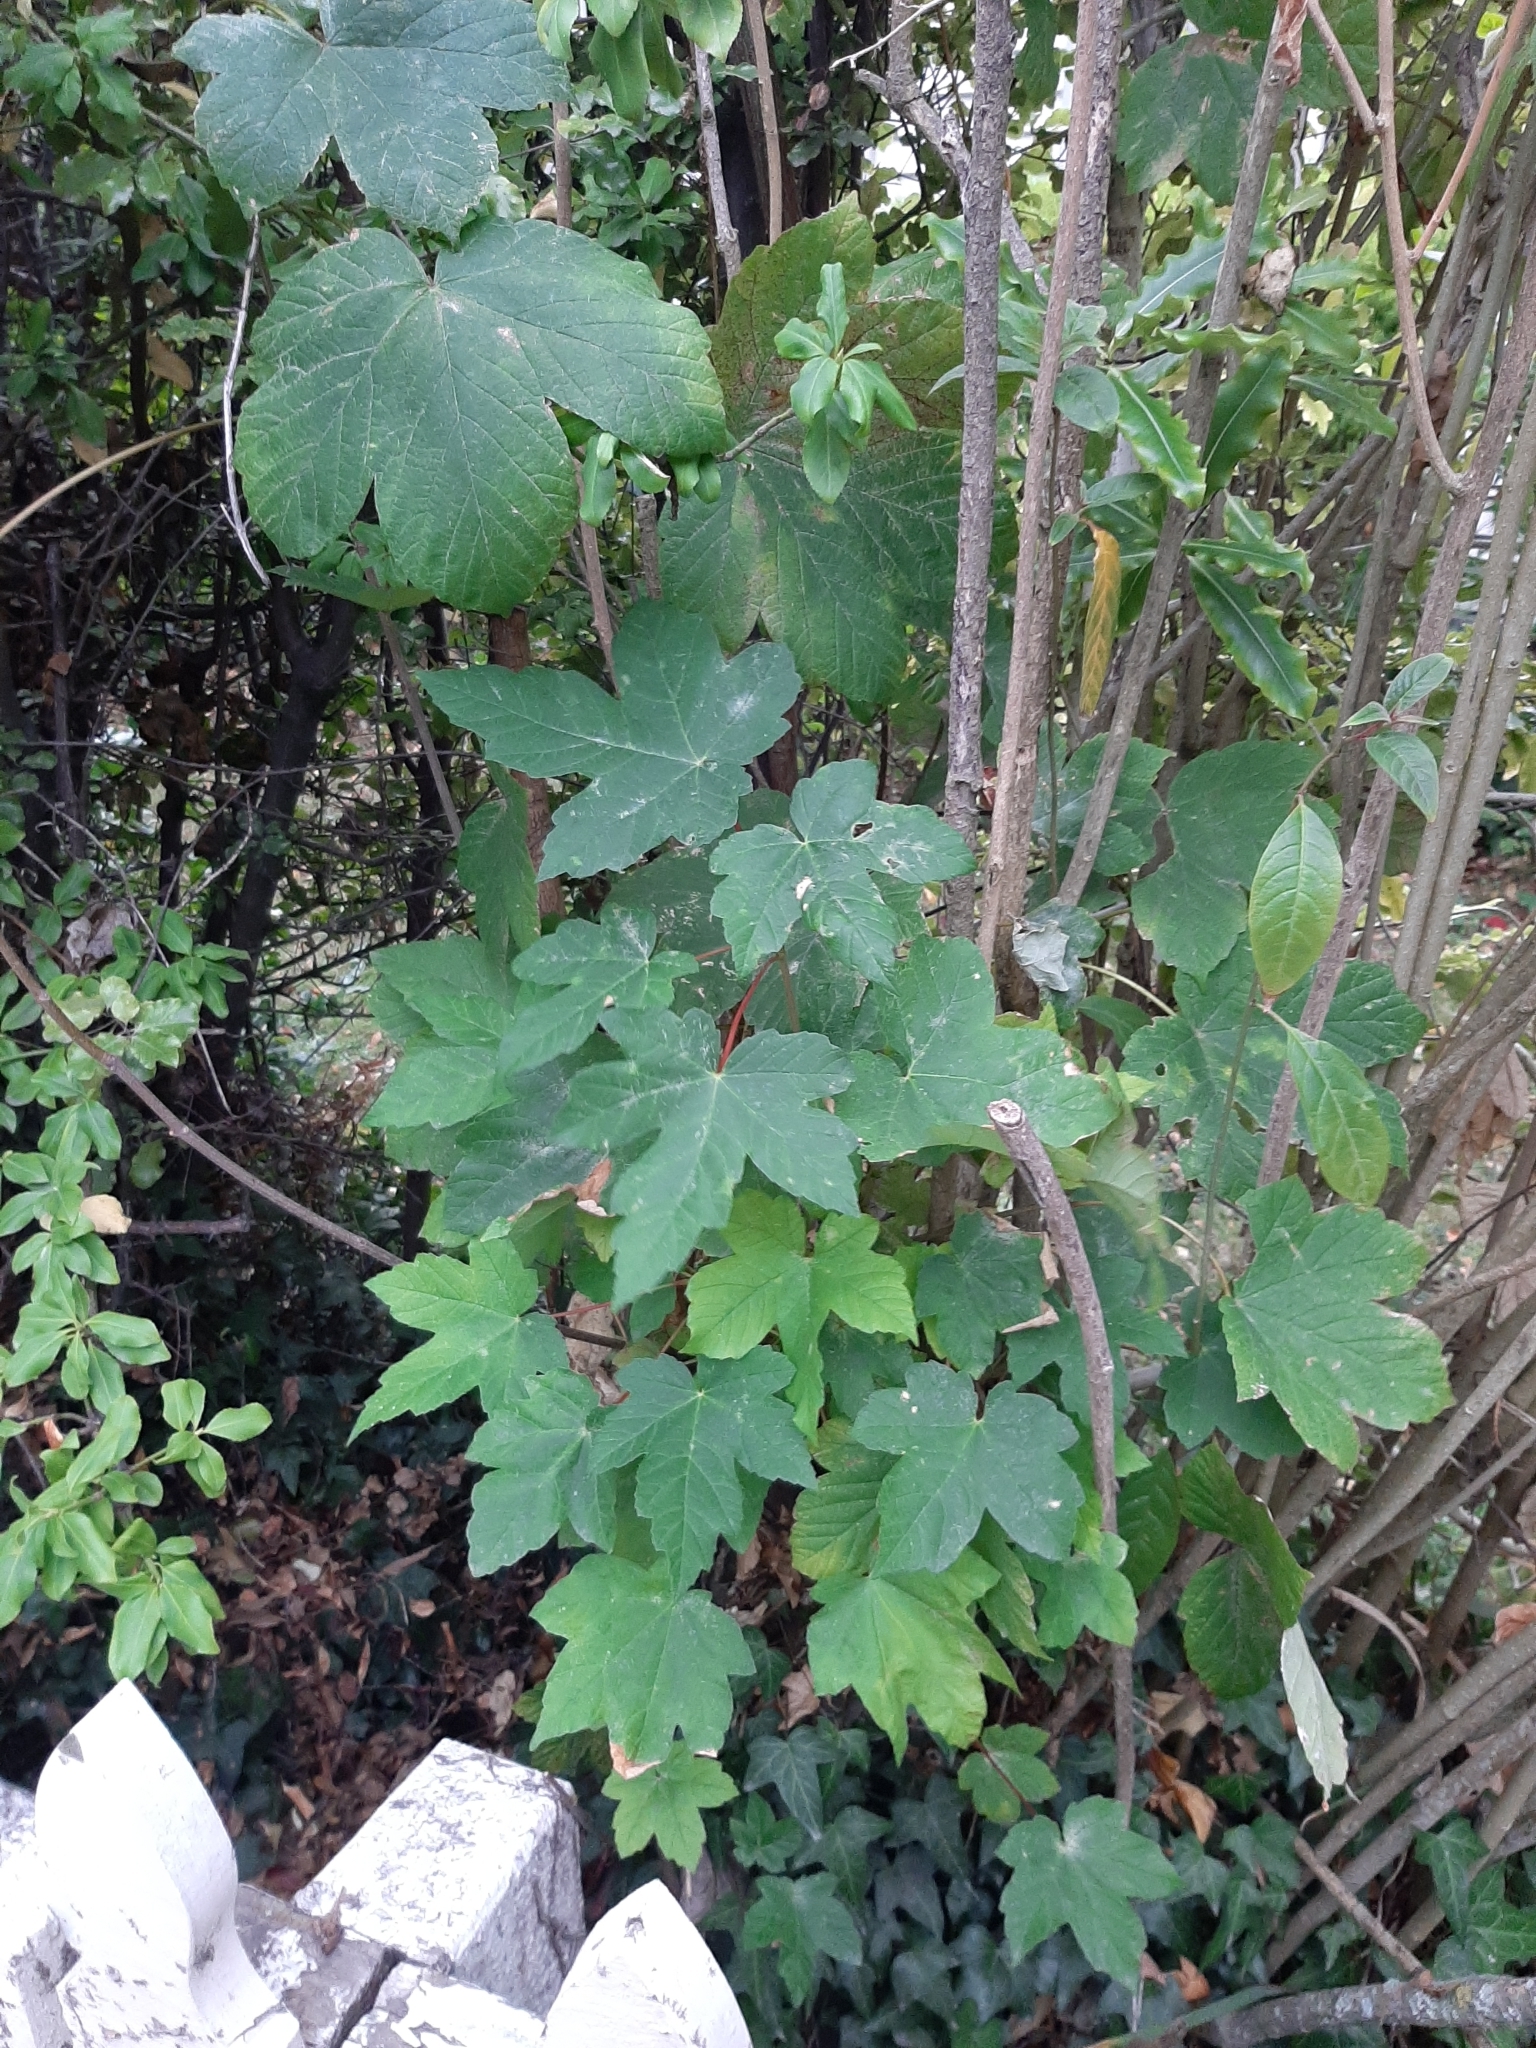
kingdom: Plantae
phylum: Tracheophyta
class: Magnoliopsida
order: Sapindales
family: Sapindaceae
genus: Acer
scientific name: Acer pseudoplatanus
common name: Sycamore
